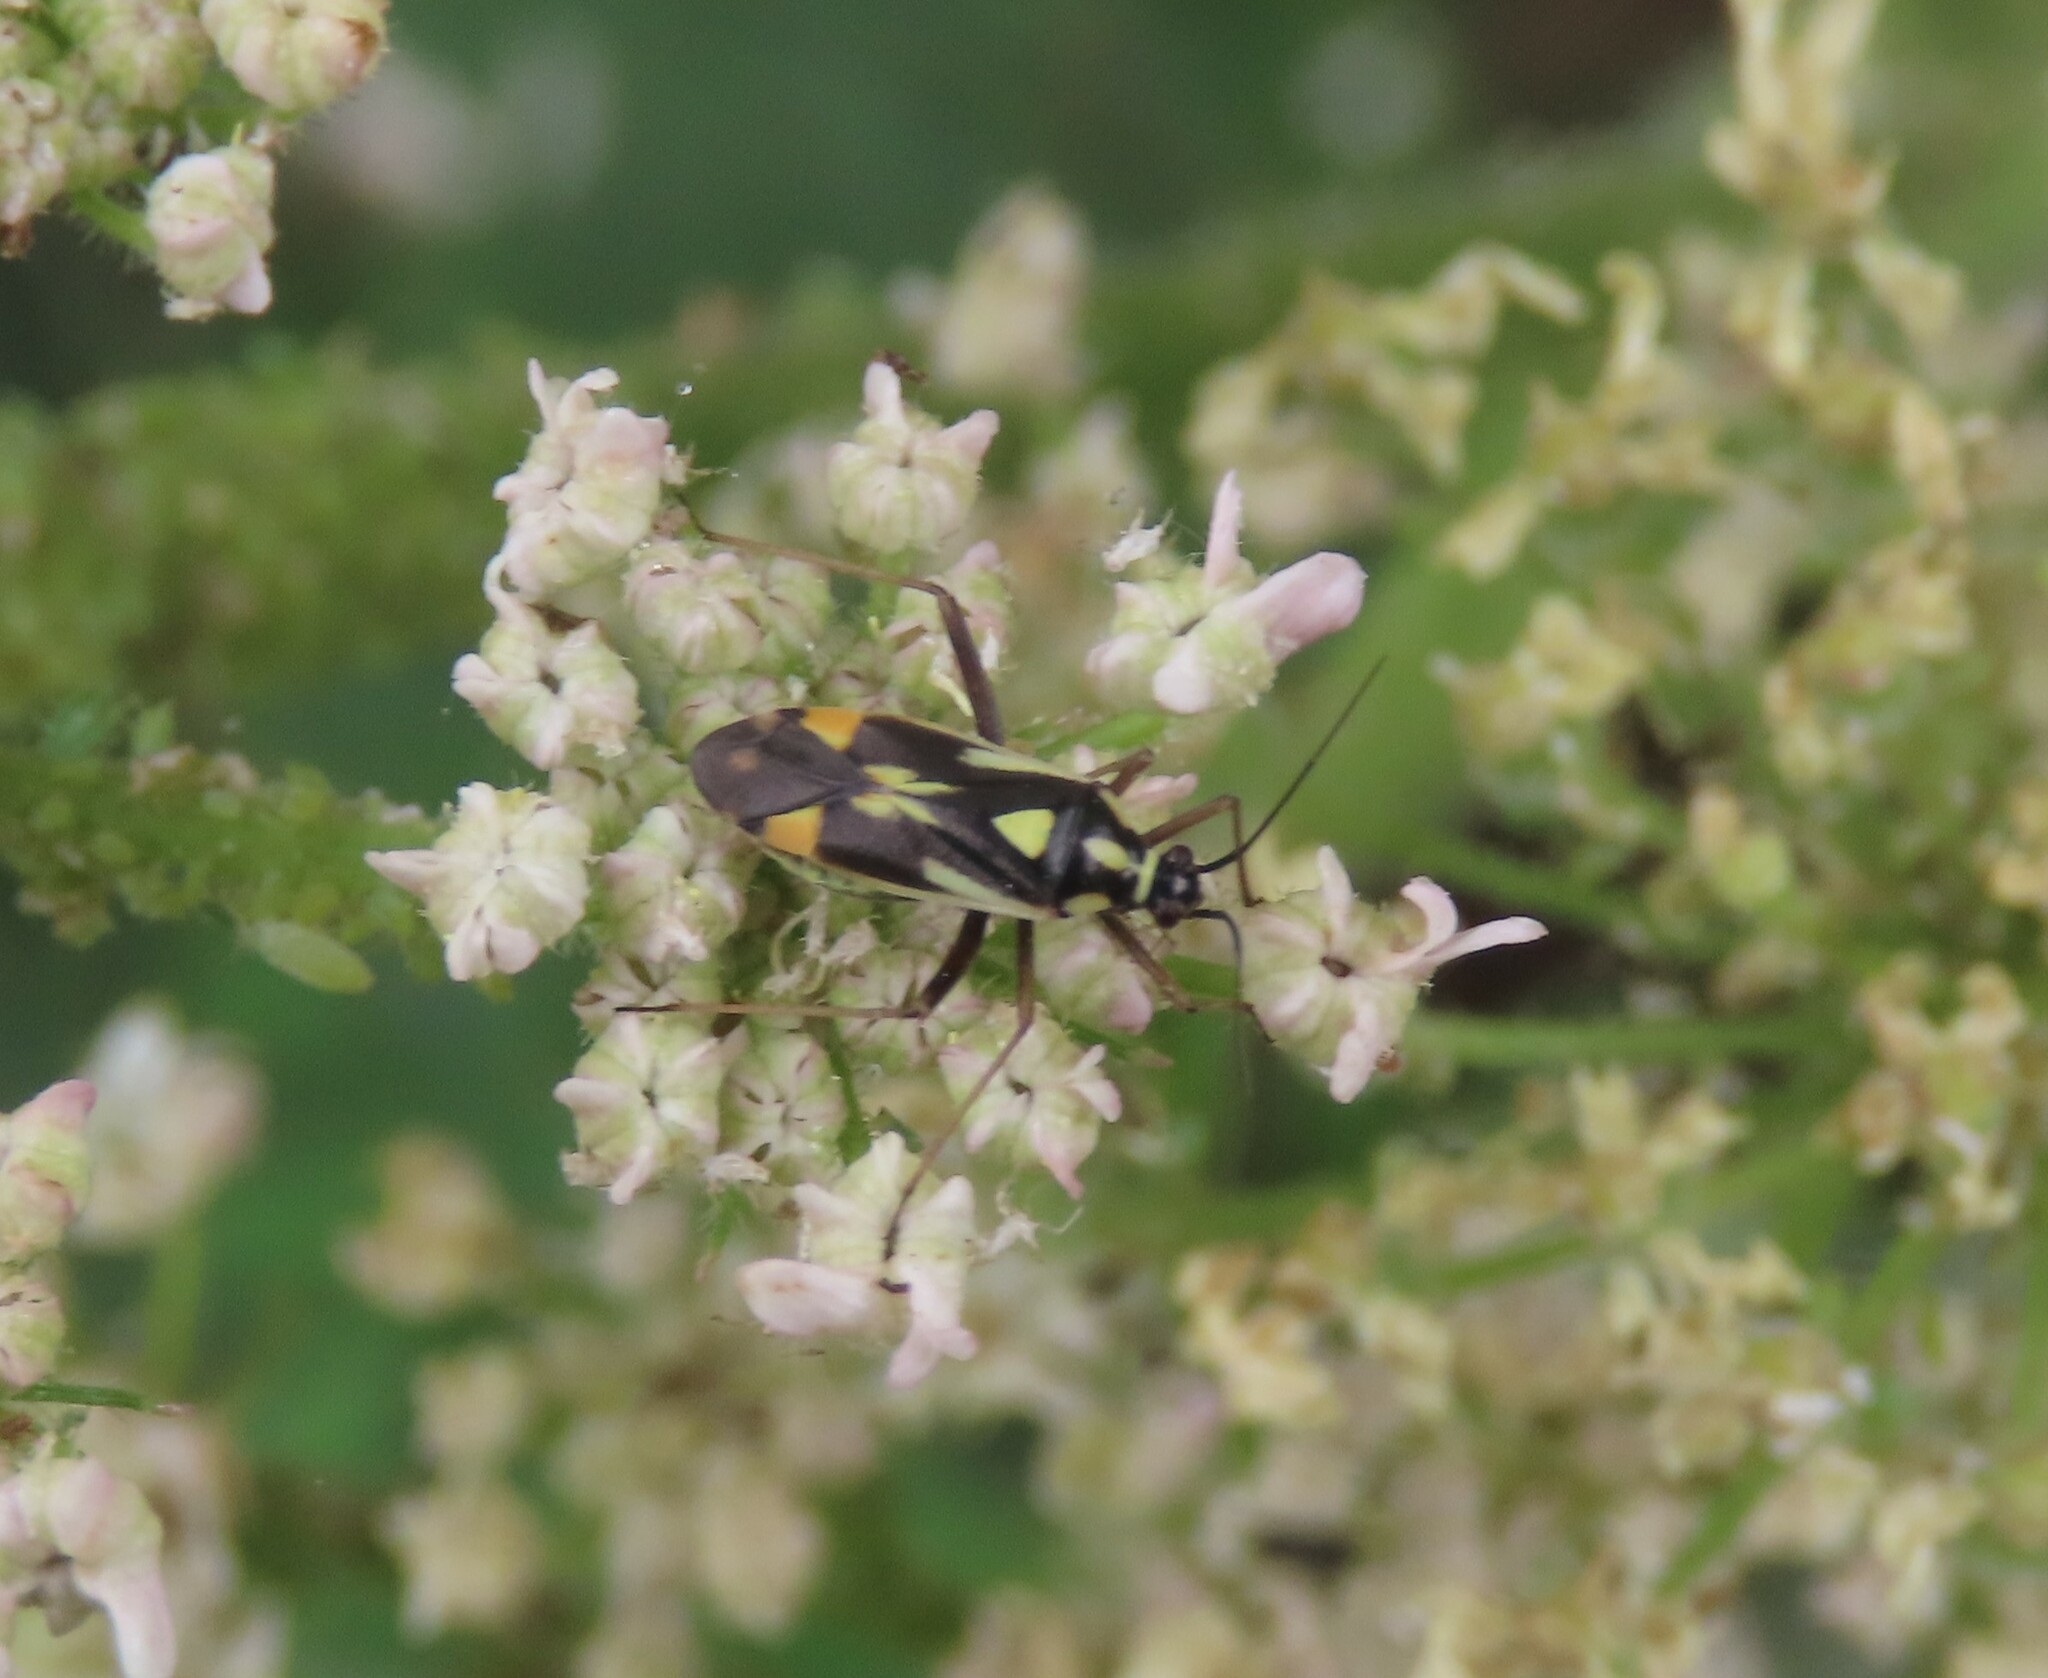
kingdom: Animalia
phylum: Arthropoda
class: Insecta
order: Hemiptera
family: Miridae
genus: Grypocoris
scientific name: Grypocoris stysi
